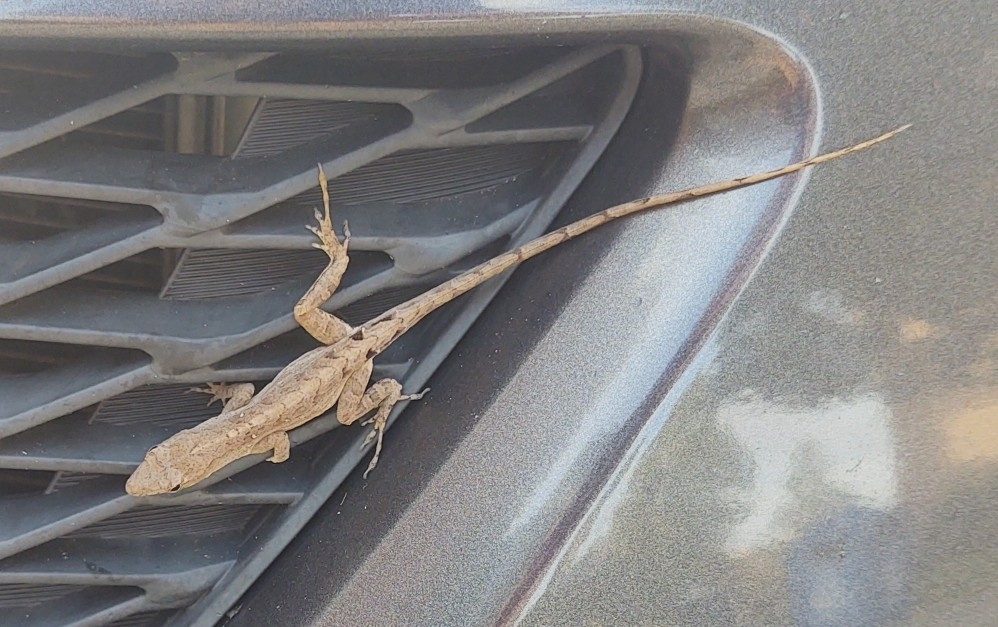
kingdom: Animalia
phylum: Chordata
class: Squamata
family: Dactyloidae
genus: Anolis
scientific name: Anolis sagrei
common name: Brown anole
